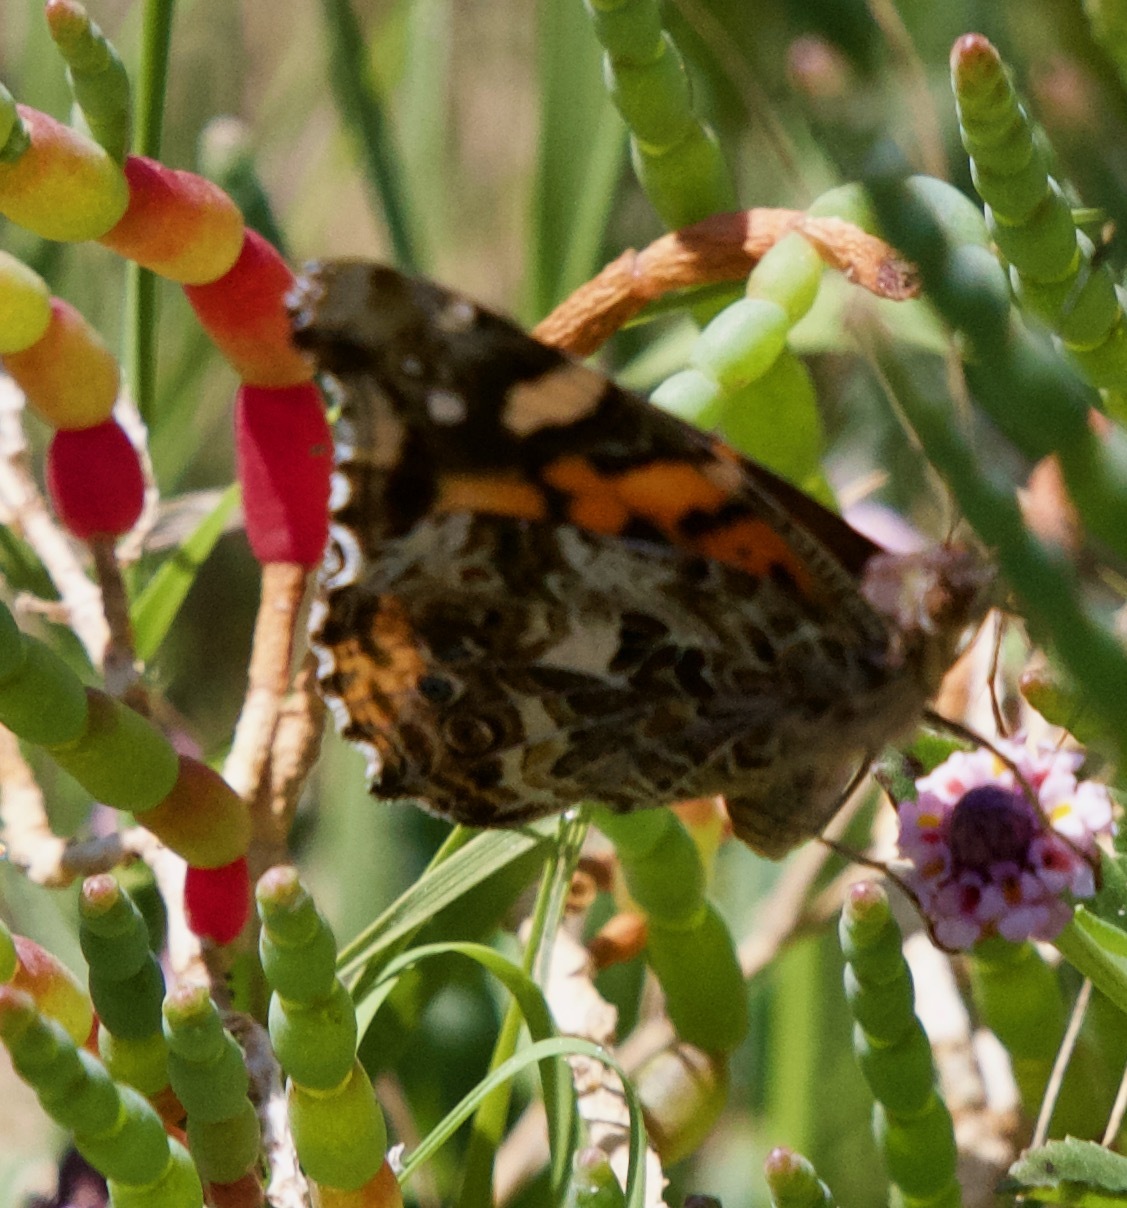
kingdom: Animalia
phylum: Arthropoda
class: Insecta
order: Lepidoptera
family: Nymphalidae
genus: Vanessa
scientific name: Vanessa carye
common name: Subtropical lady
